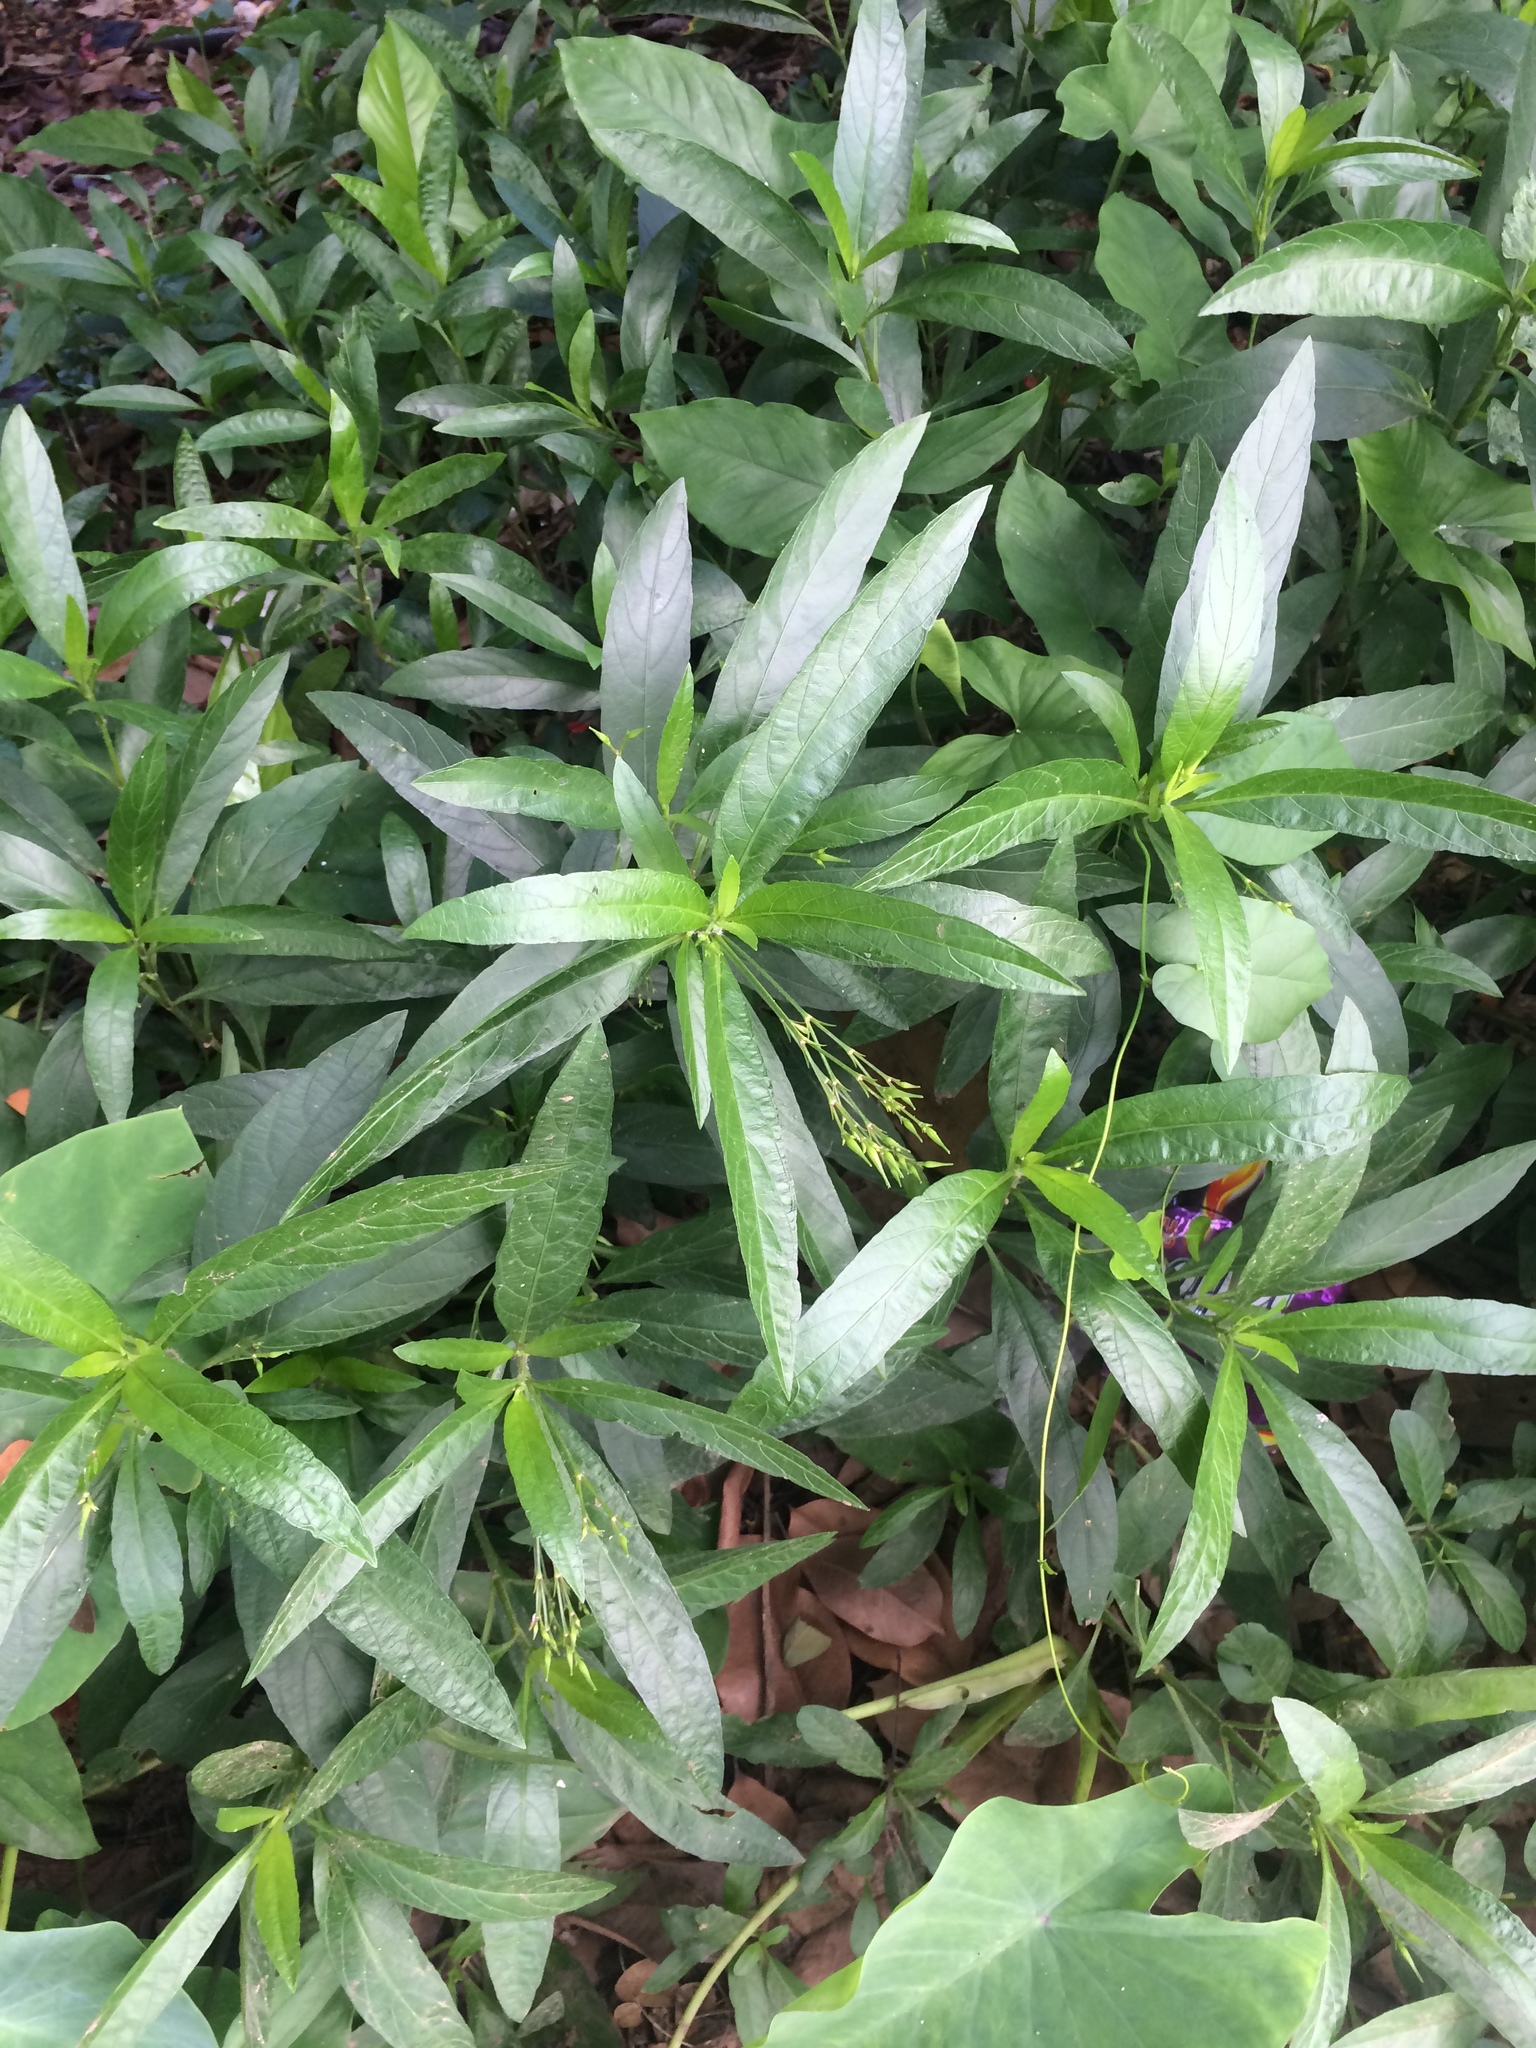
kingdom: Plantae
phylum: Tracheophyta
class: Magnoliopsida
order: Lamiales
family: Acanthaceae
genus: Ruellia
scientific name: Ruellia simplex
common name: Softseed wild petunia
